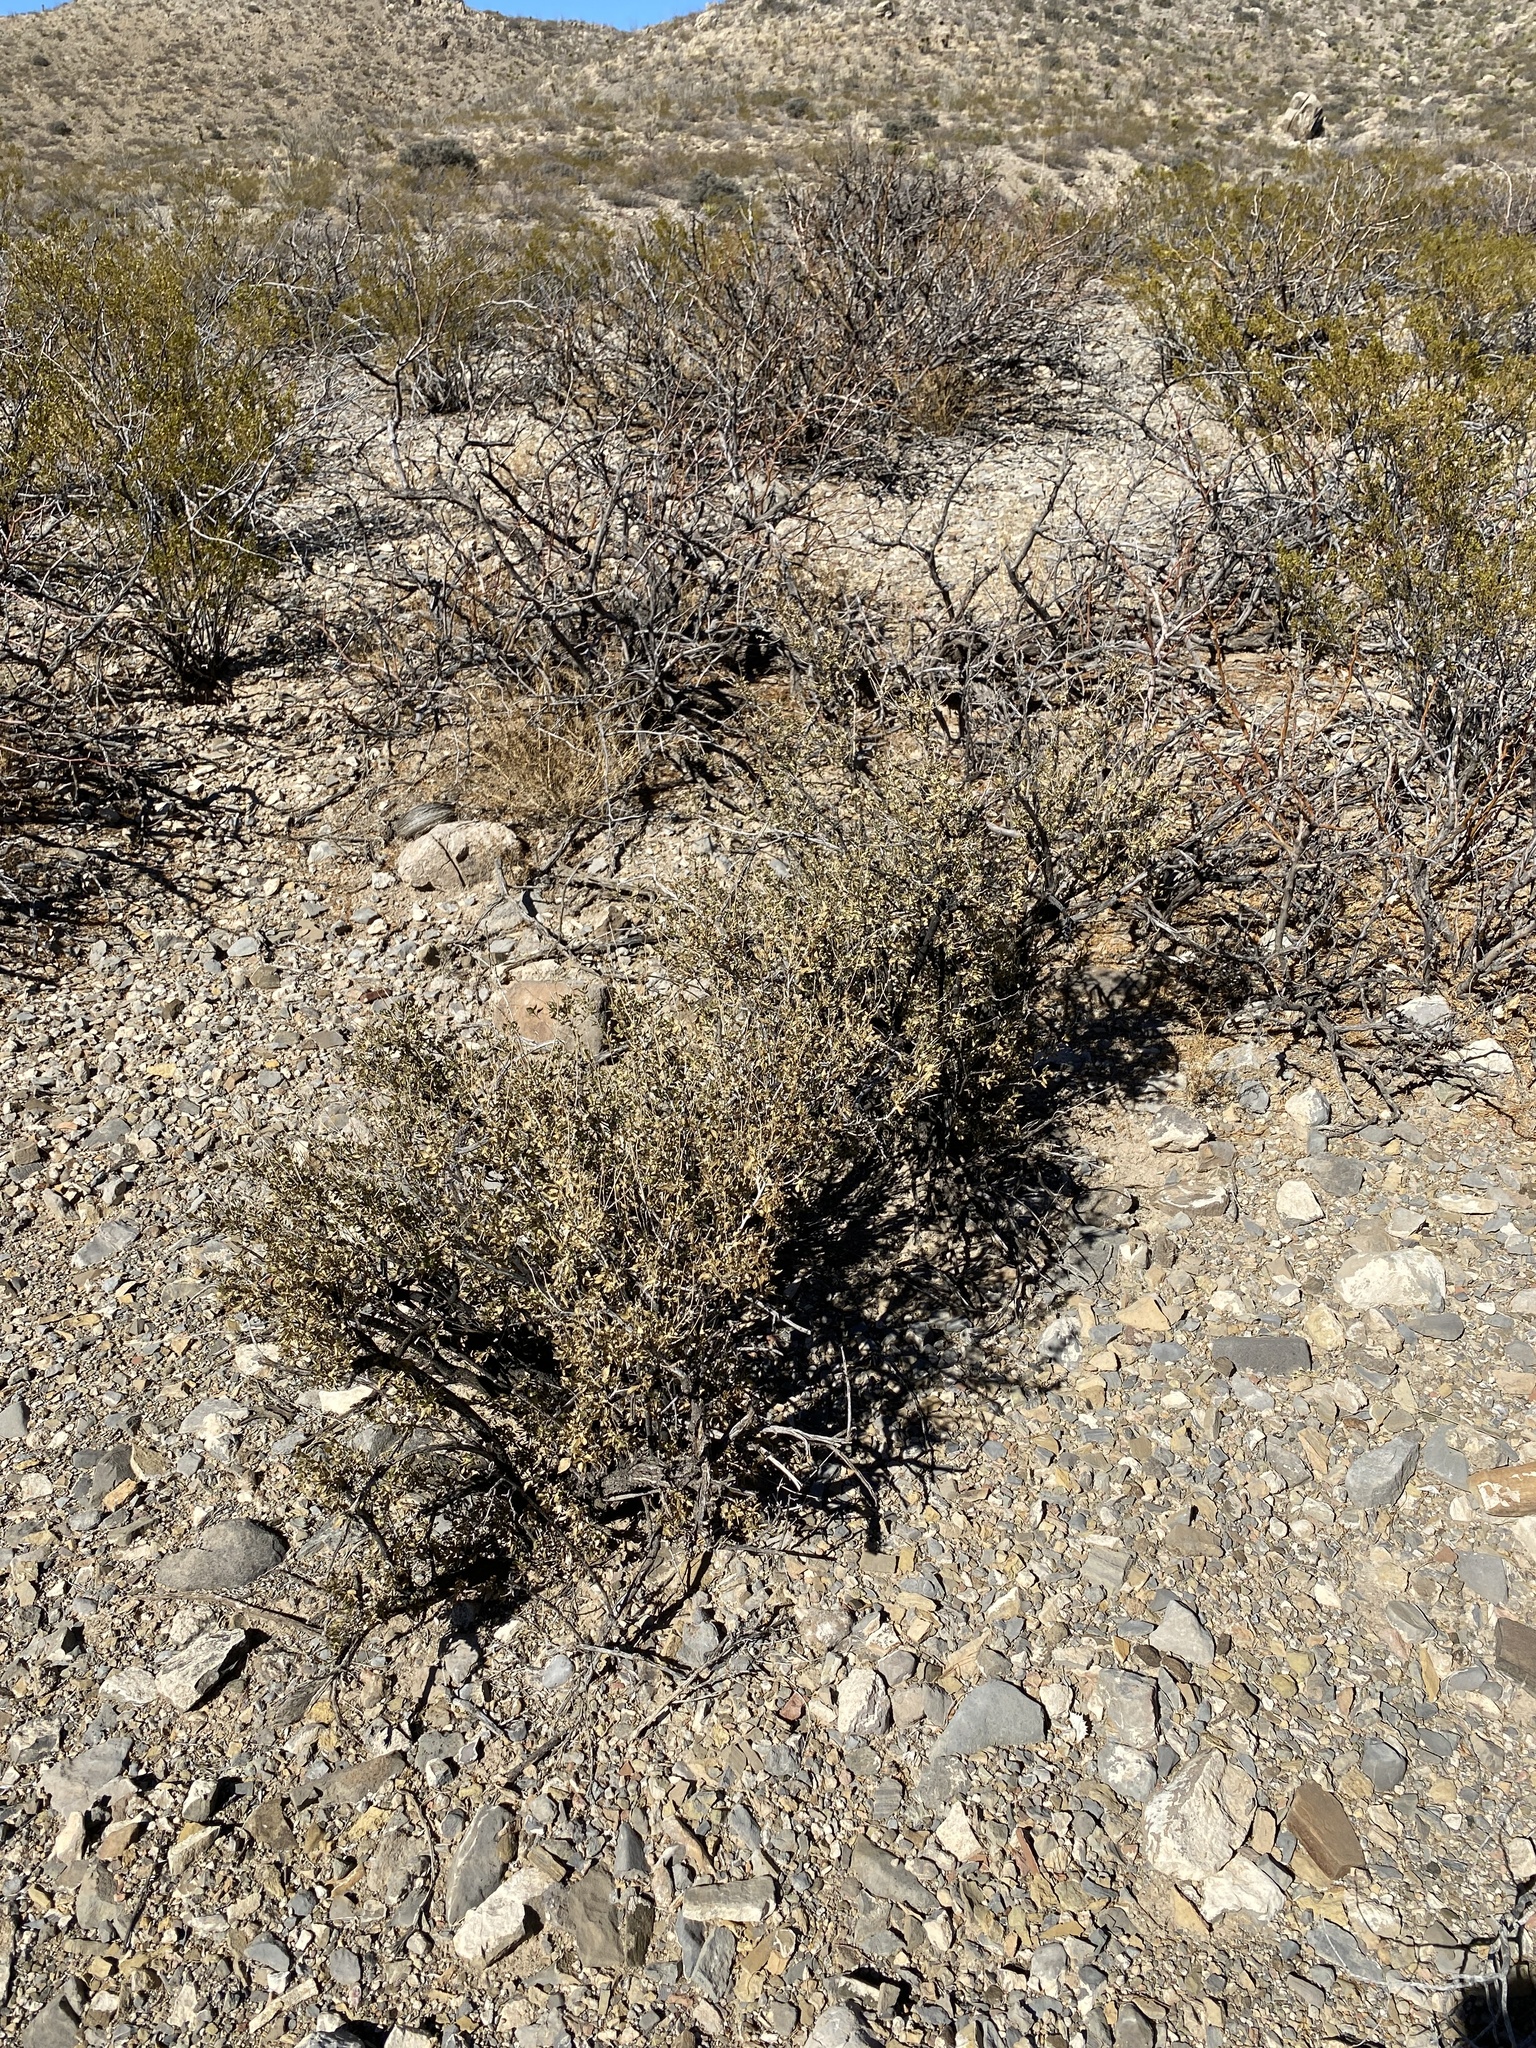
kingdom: Plantae
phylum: Tracheophyta
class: Magnoliopsida
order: Asterales
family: Asteraceae
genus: Flourensia
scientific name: Flourensia cernua
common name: Varnishbush
